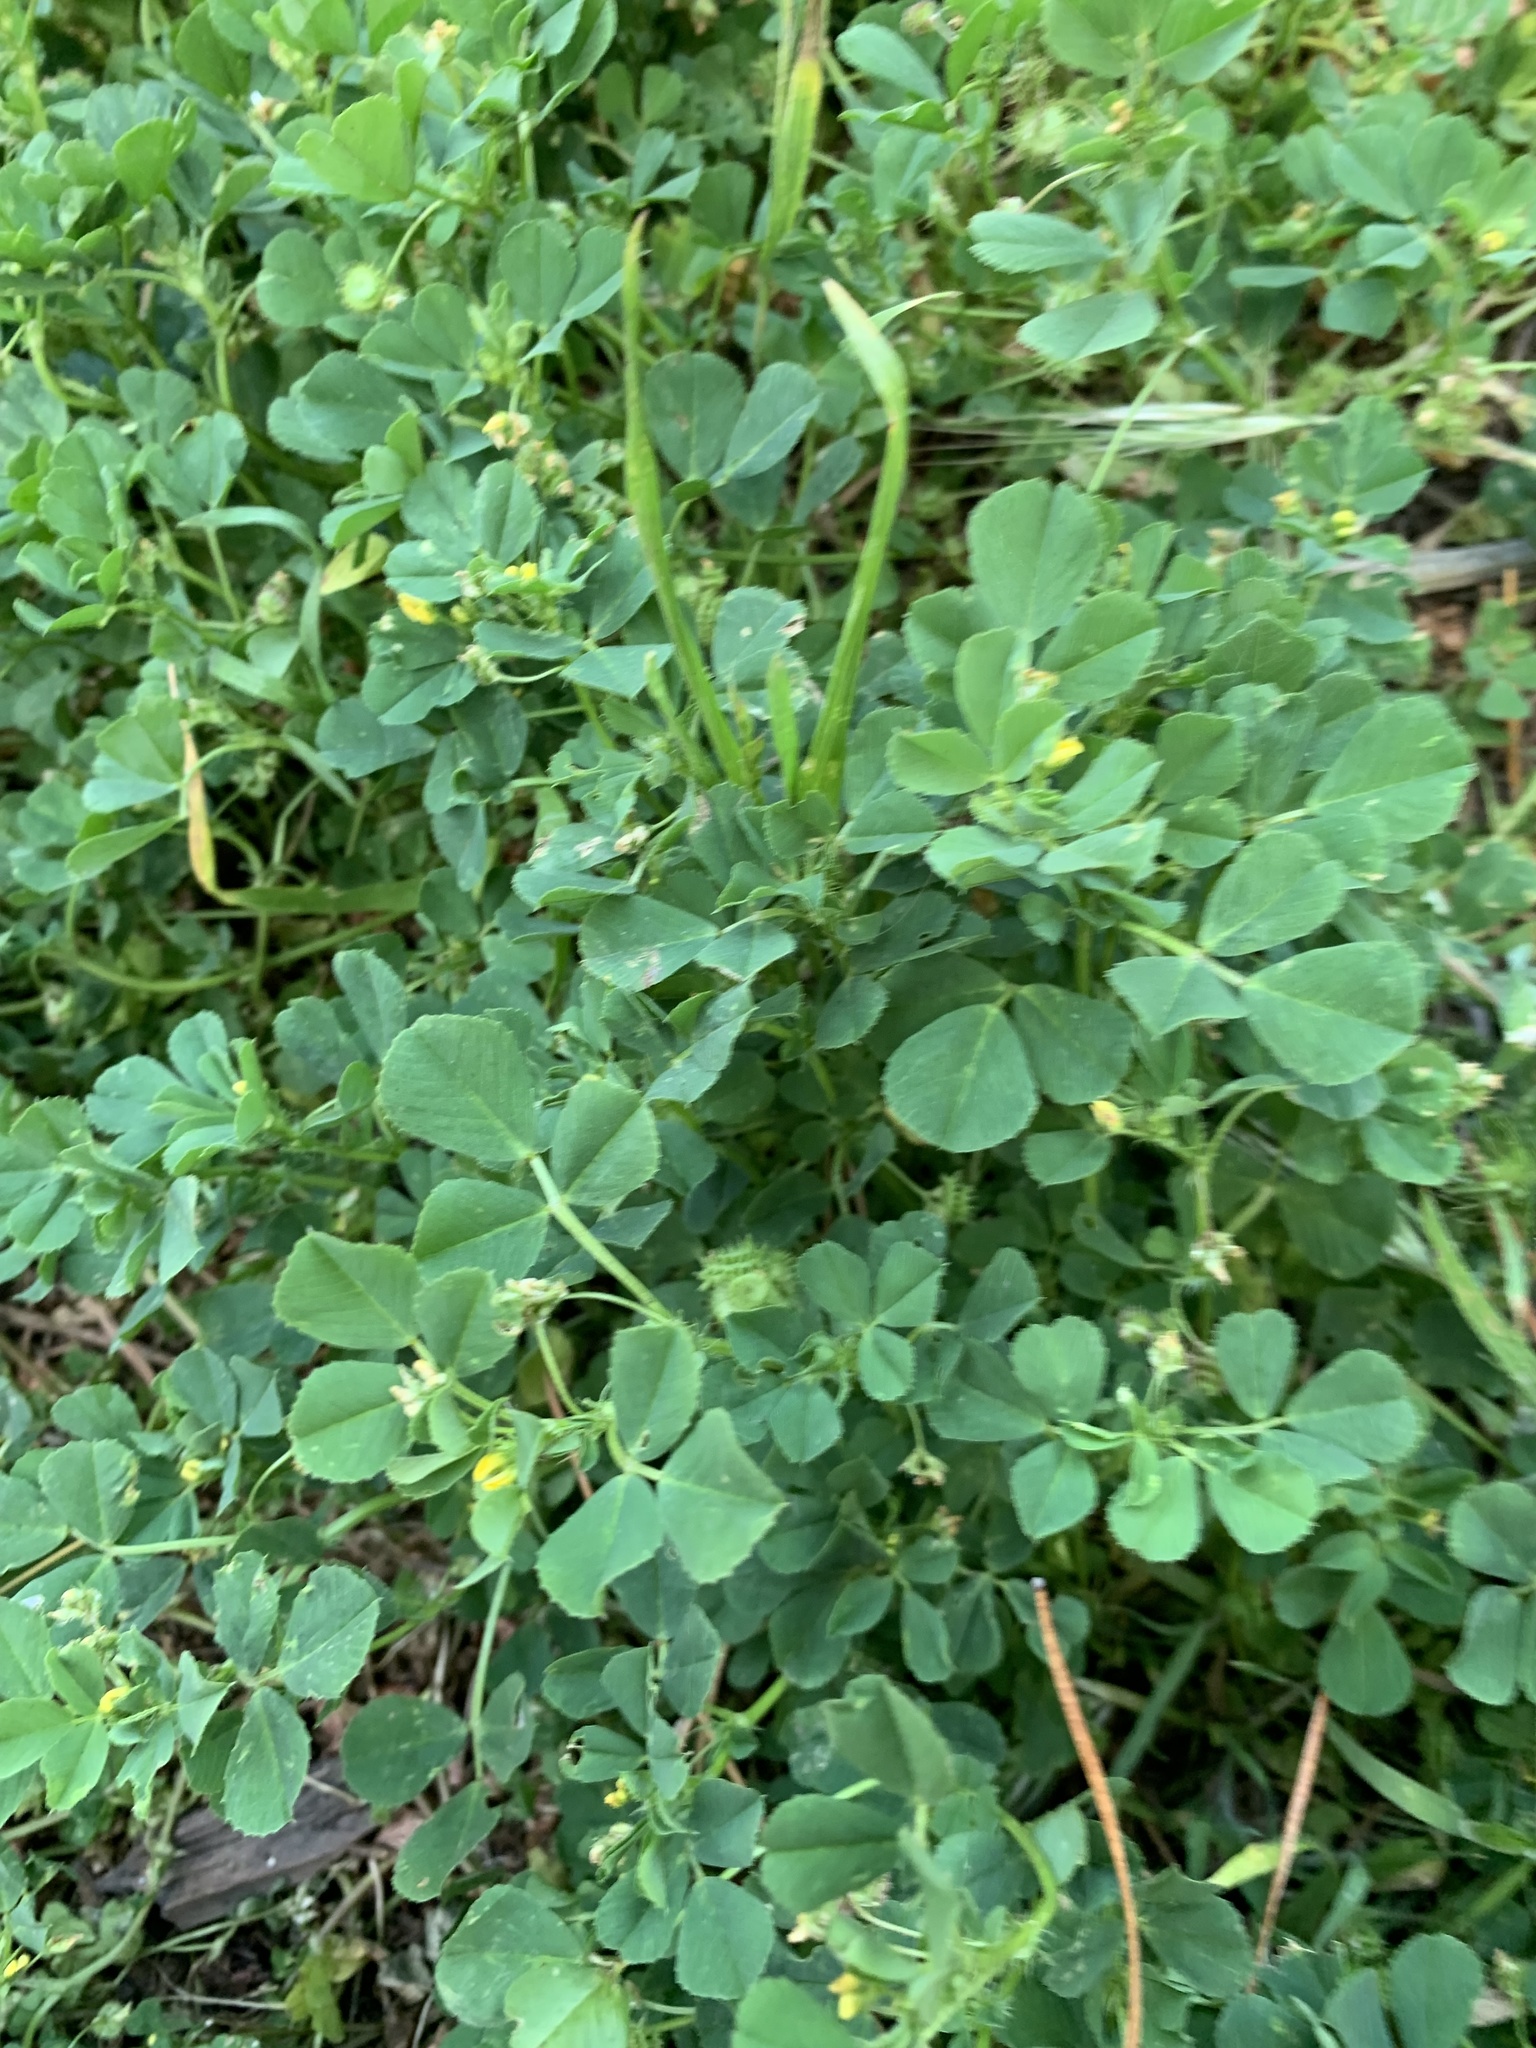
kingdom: Plantae
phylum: Tracheophyta
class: Magnoliopsida
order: Fabales
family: Fabaceae
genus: Medicago
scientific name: Medicago polymorpha
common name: Burclover
